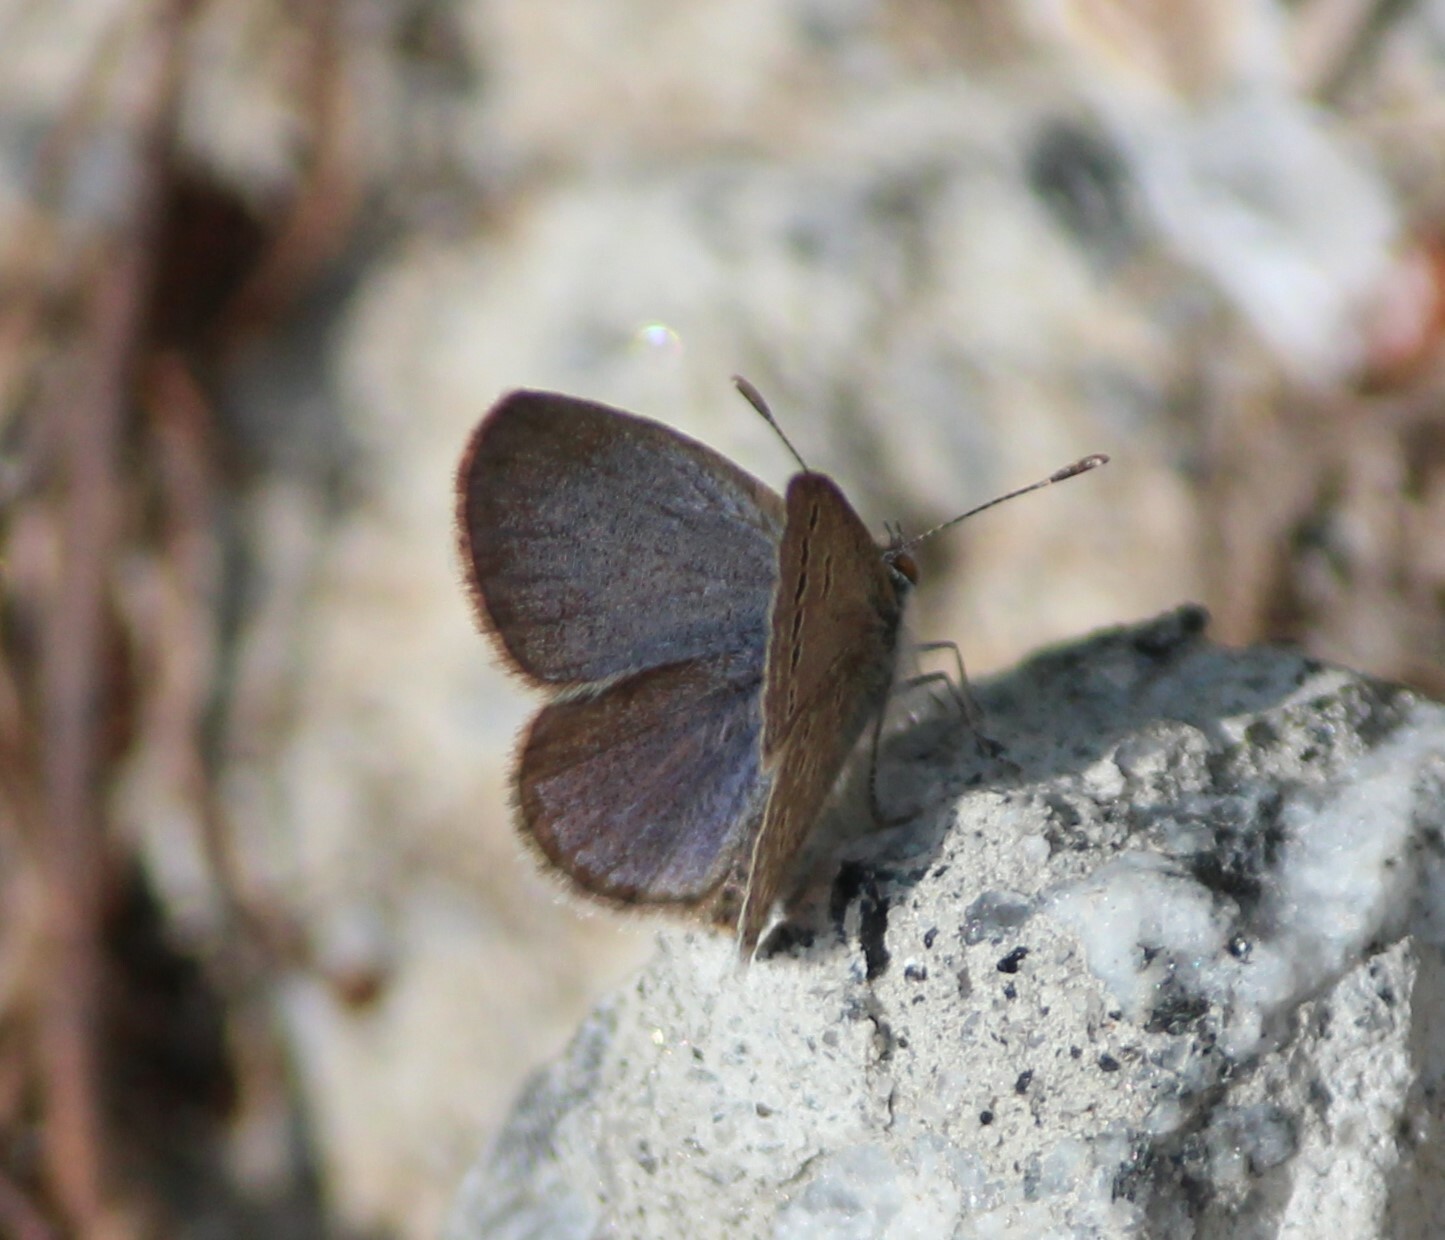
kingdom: Animalia
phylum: Arthropoda
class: Insecta
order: Lepidoptera
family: Lycaenidae
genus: Zizeeria
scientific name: Zizeeria karsandra
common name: Dark grass blue
